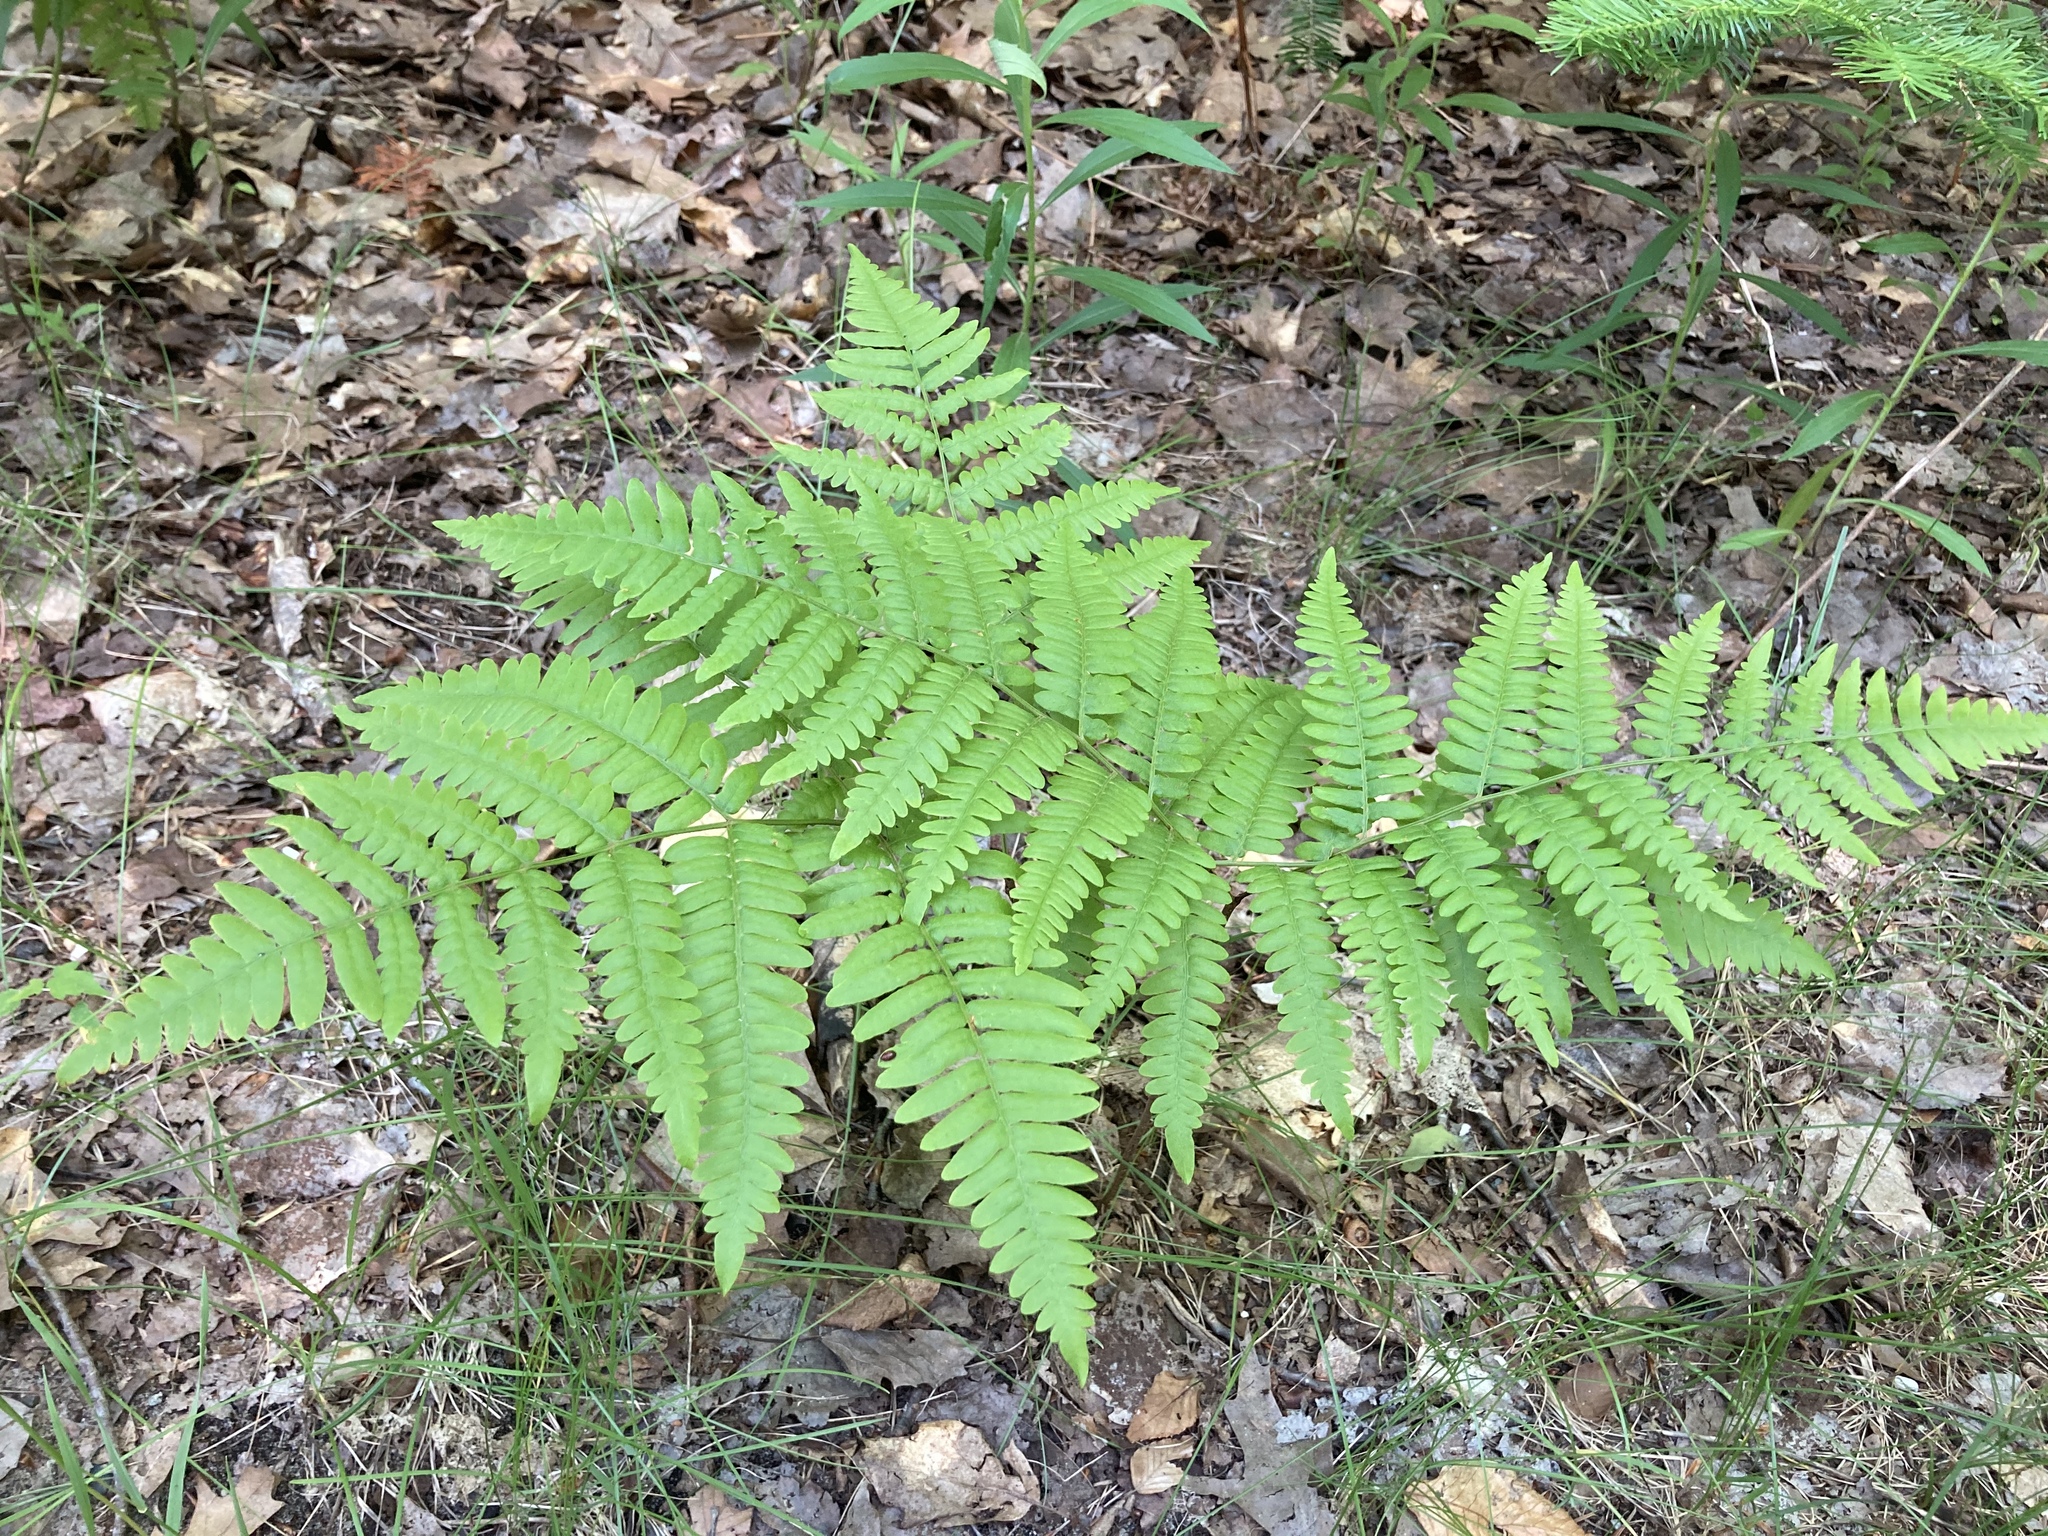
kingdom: Plantae
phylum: Tracheophyta
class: Polypodiopsida
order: Polypodiales
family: Dennstaedtiaceae
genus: Pteridium
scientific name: Pteridium aquilinum
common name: Bracken
